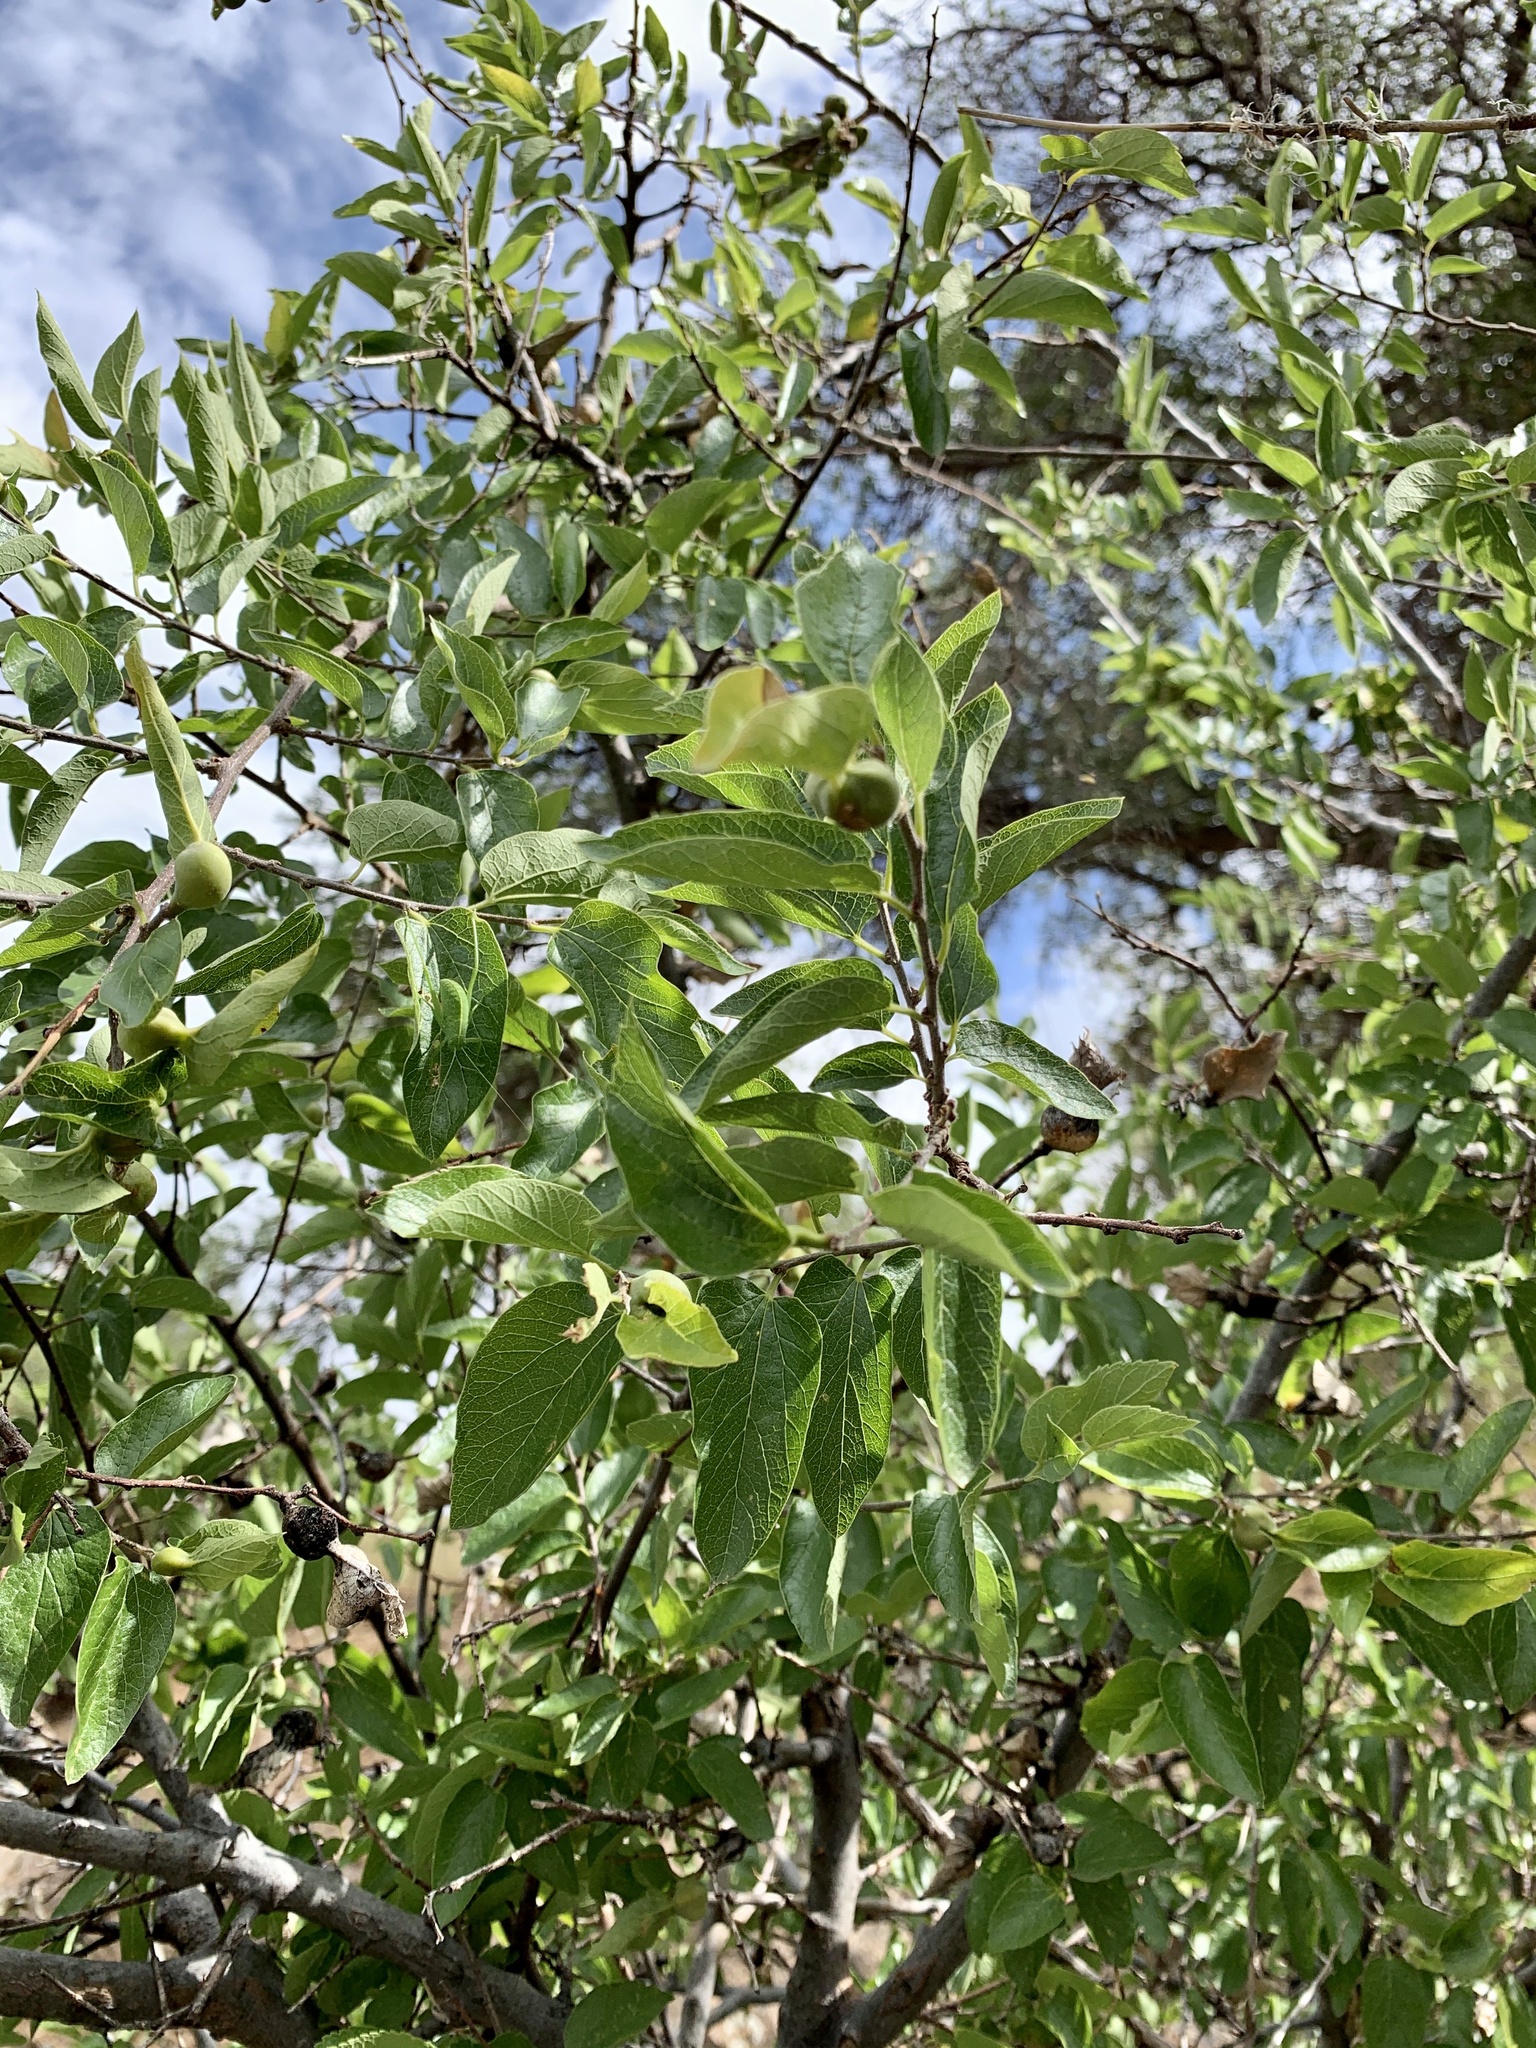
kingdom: Plantae
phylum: Tracheophyta
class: Magnoliopsida
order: Rosales
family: Cannabaceae
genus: Celtis
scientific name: Celtis reticulata
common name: Netleaf hackberry
